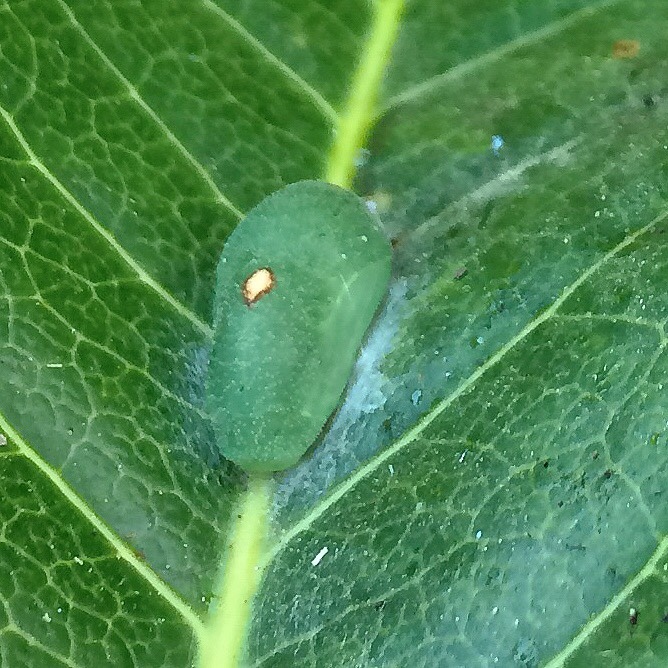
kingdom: Animalia
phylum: Arthropoda
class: Insecta
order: Lepidoptera
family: Lycaenidae
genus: Anthene
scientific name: Anthene definita
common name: Common ciliate blue
